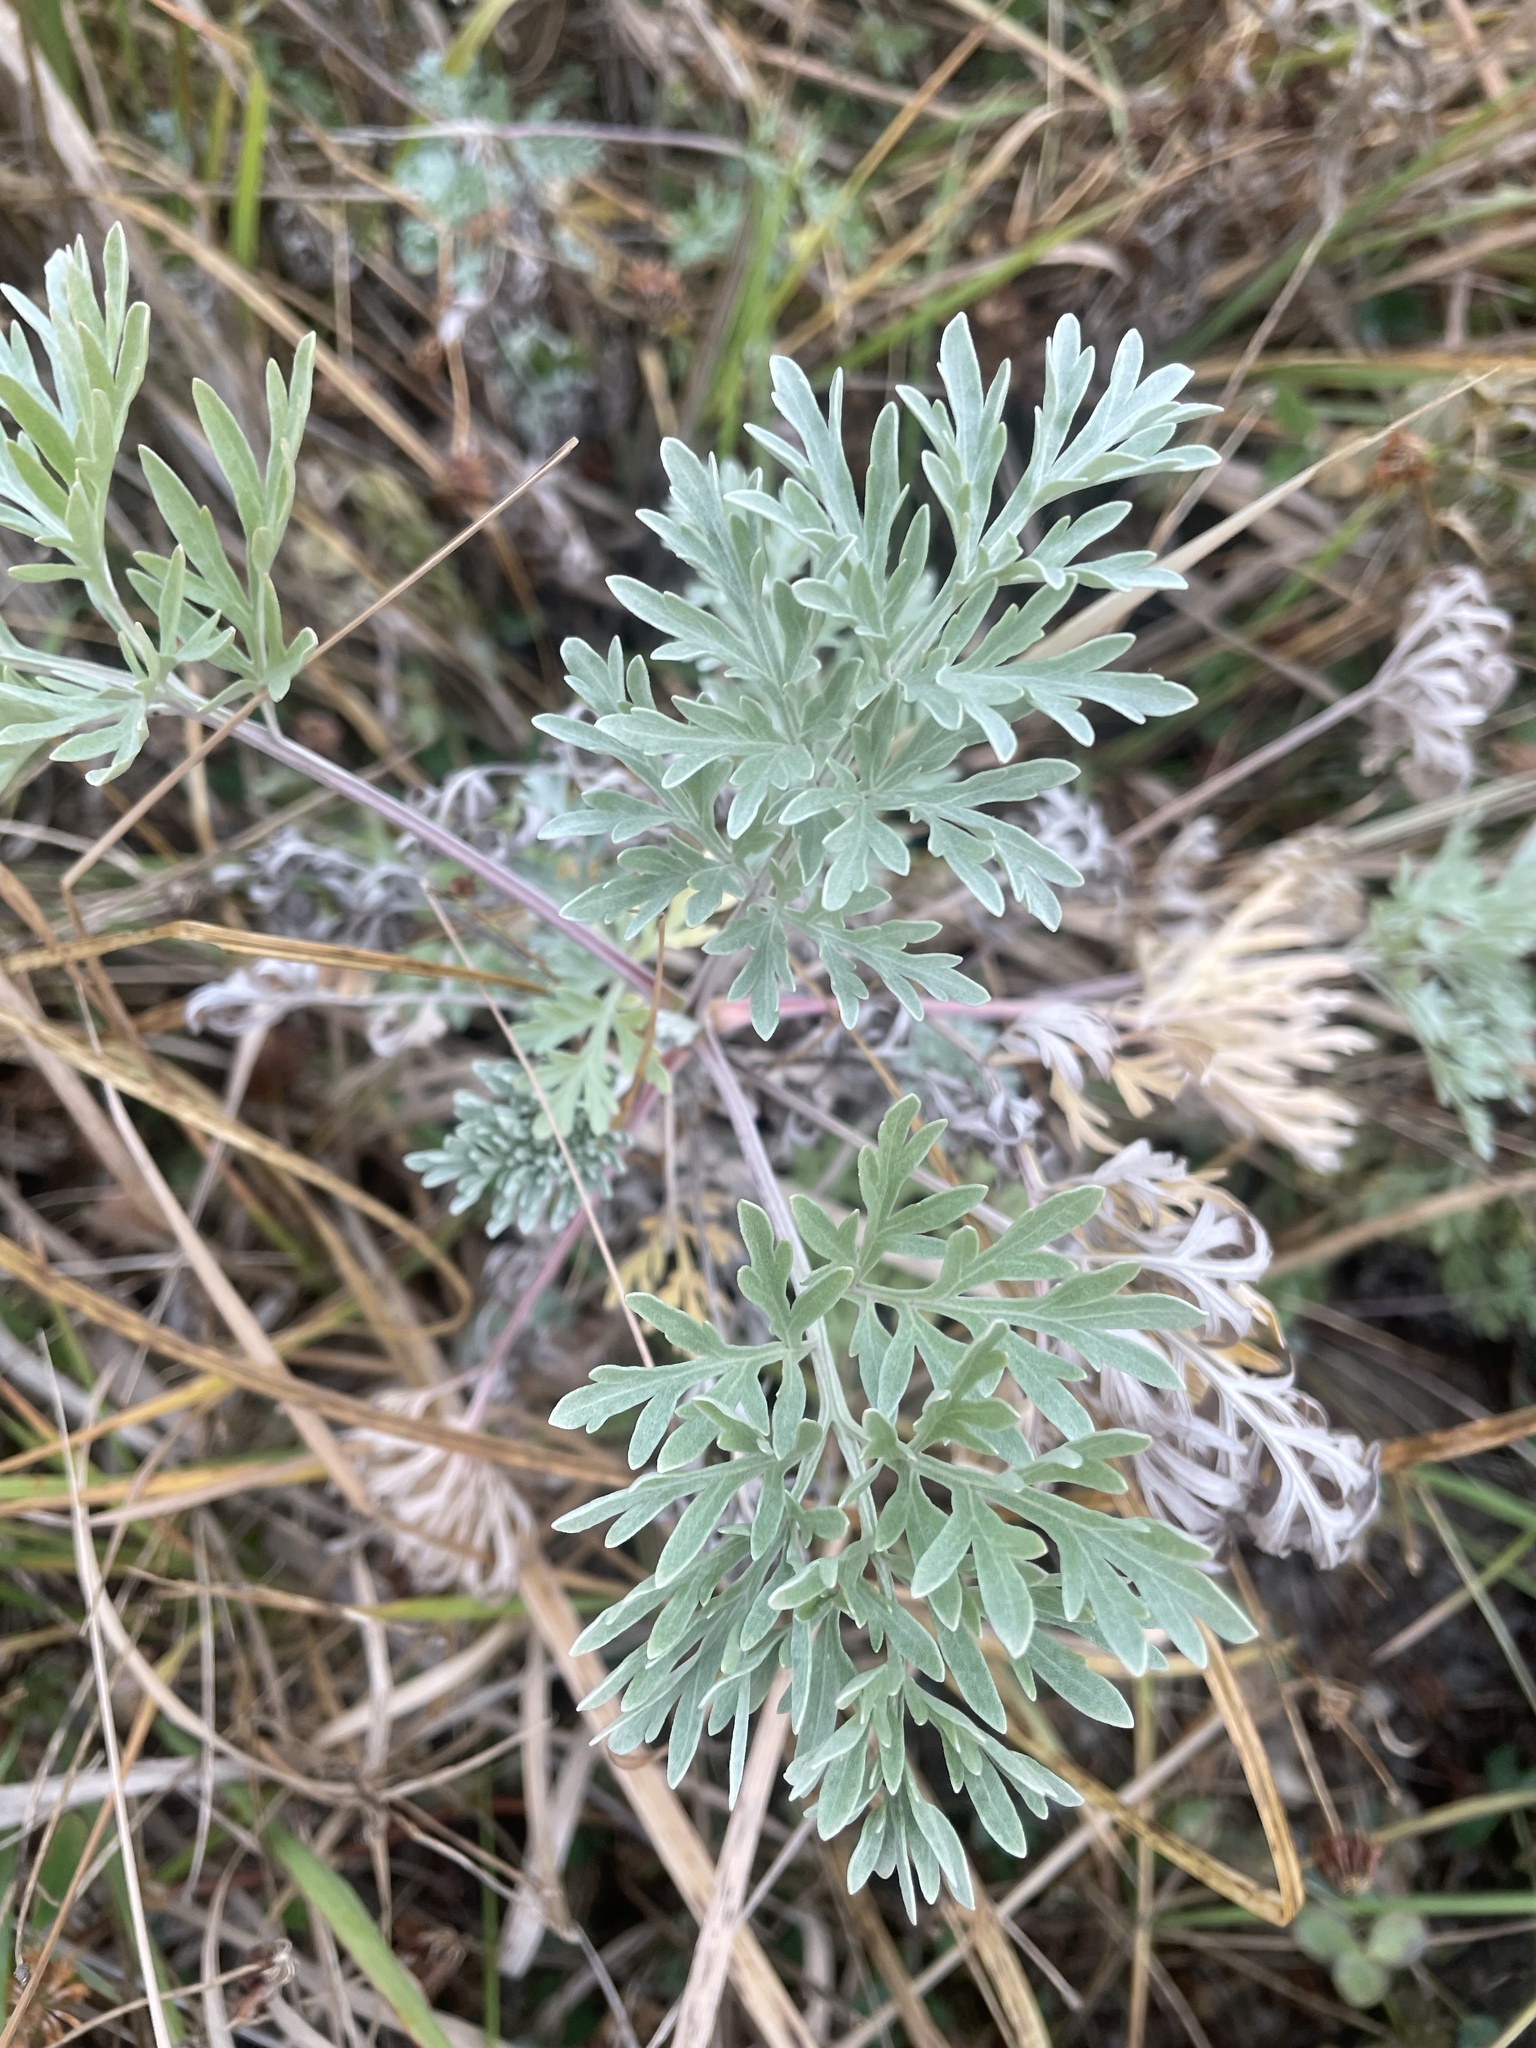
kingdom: Plantae
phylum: Tracheophyta
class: Magnoliopsida
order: Asterales
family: Asteraceae
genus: Artemisia
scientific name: Artemisia absinthium
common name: Wormwood
